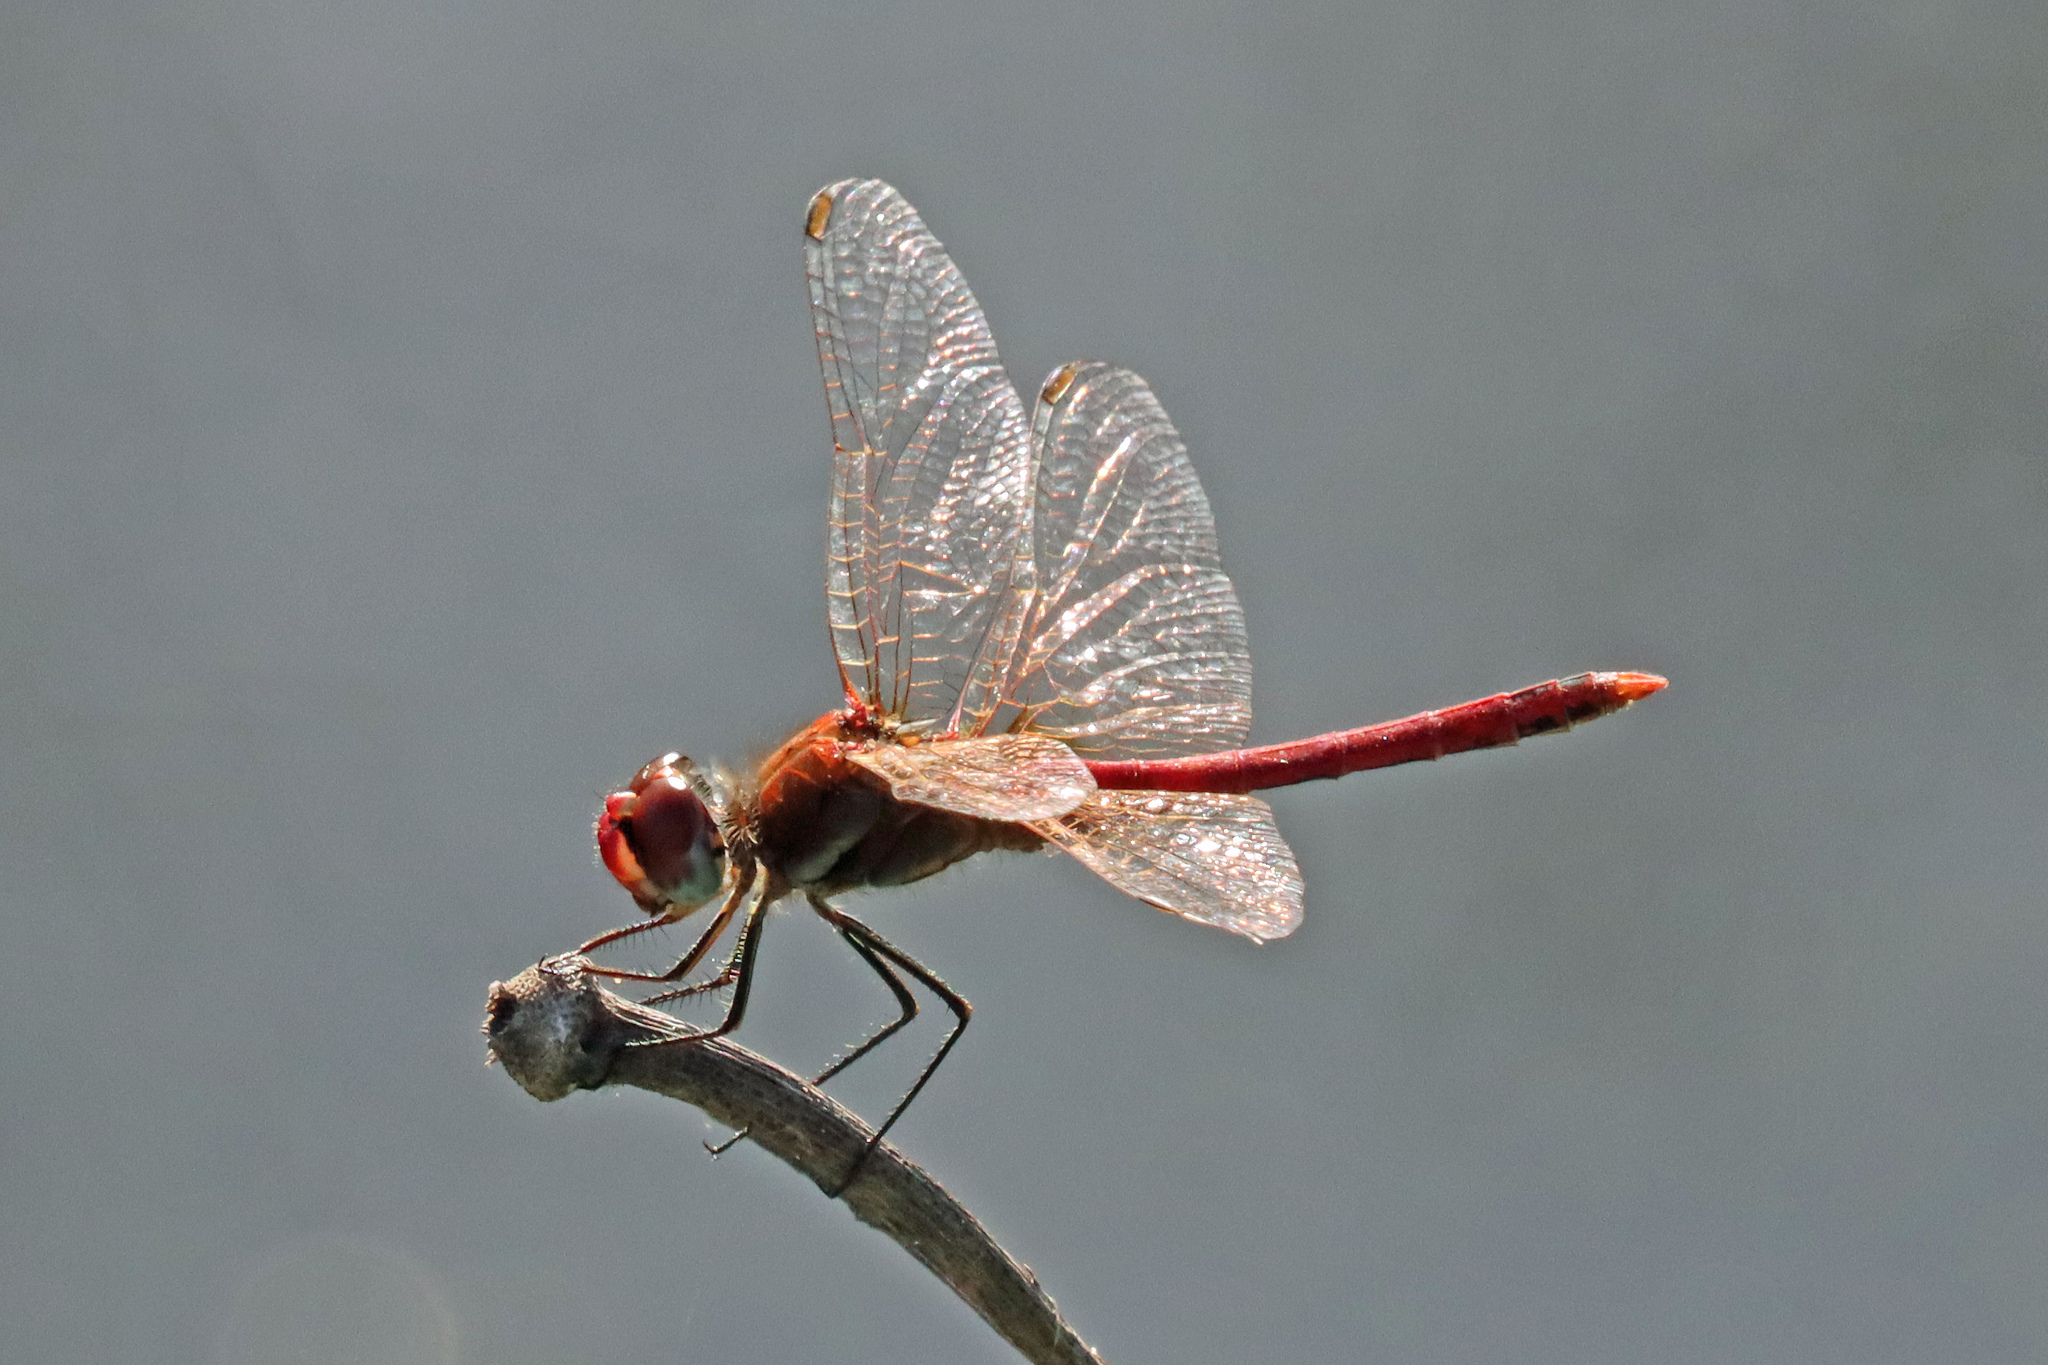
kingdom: Animalia
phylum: Arthropoda
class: Insecta
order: Odonata
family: Libellulidae
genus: Sympetrum
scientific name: Sympetrum fonscolombii
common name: Red-veined darter
